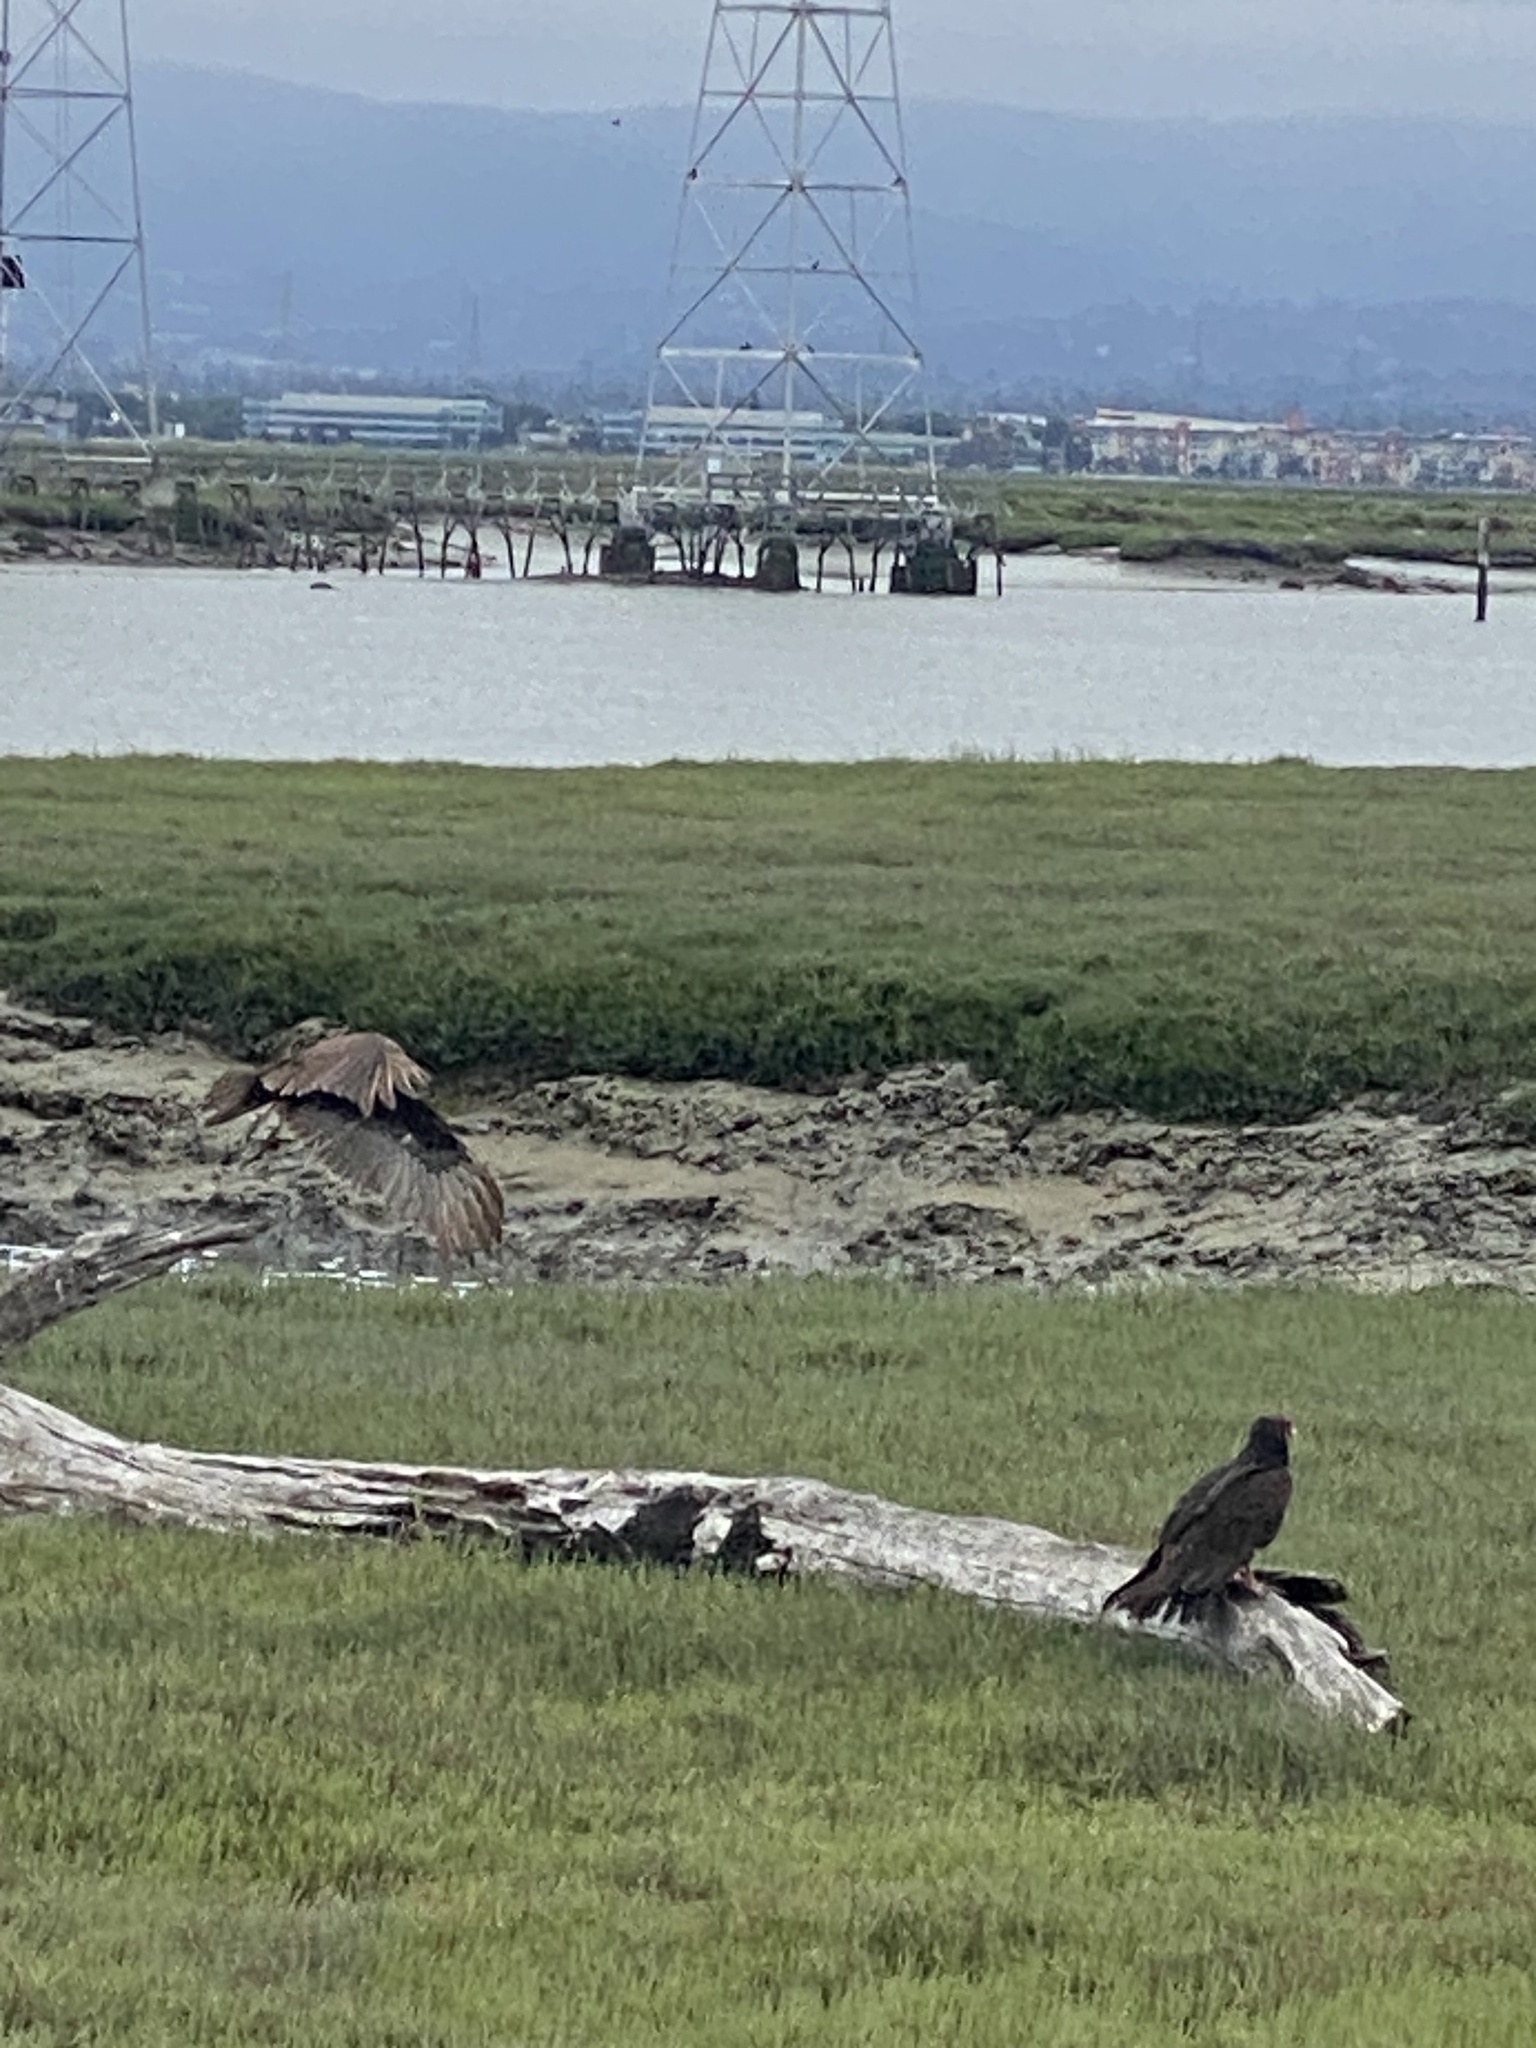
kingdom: Animalia
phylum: Chordata
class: Aves
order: Accipitriformes
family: Cathartidae
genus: Cathartes
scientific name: Cathartes aura
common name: Turkey vulture
